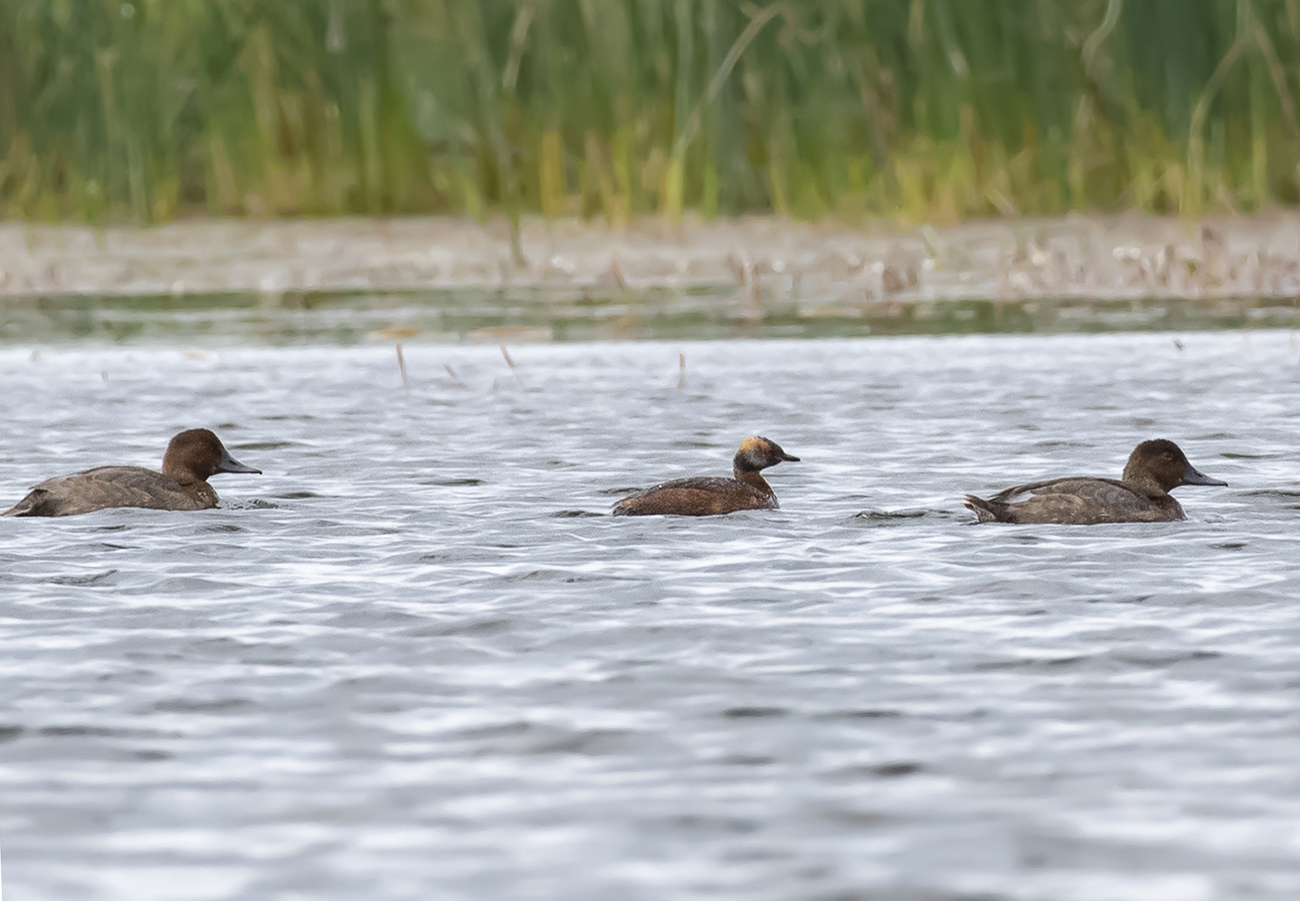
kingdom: Animalia
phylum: Chordata
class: Aves
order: Podicipediformes
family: Podicipedidae
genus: Podiceps
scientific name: Podiceps auritus
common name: Horned grebe
